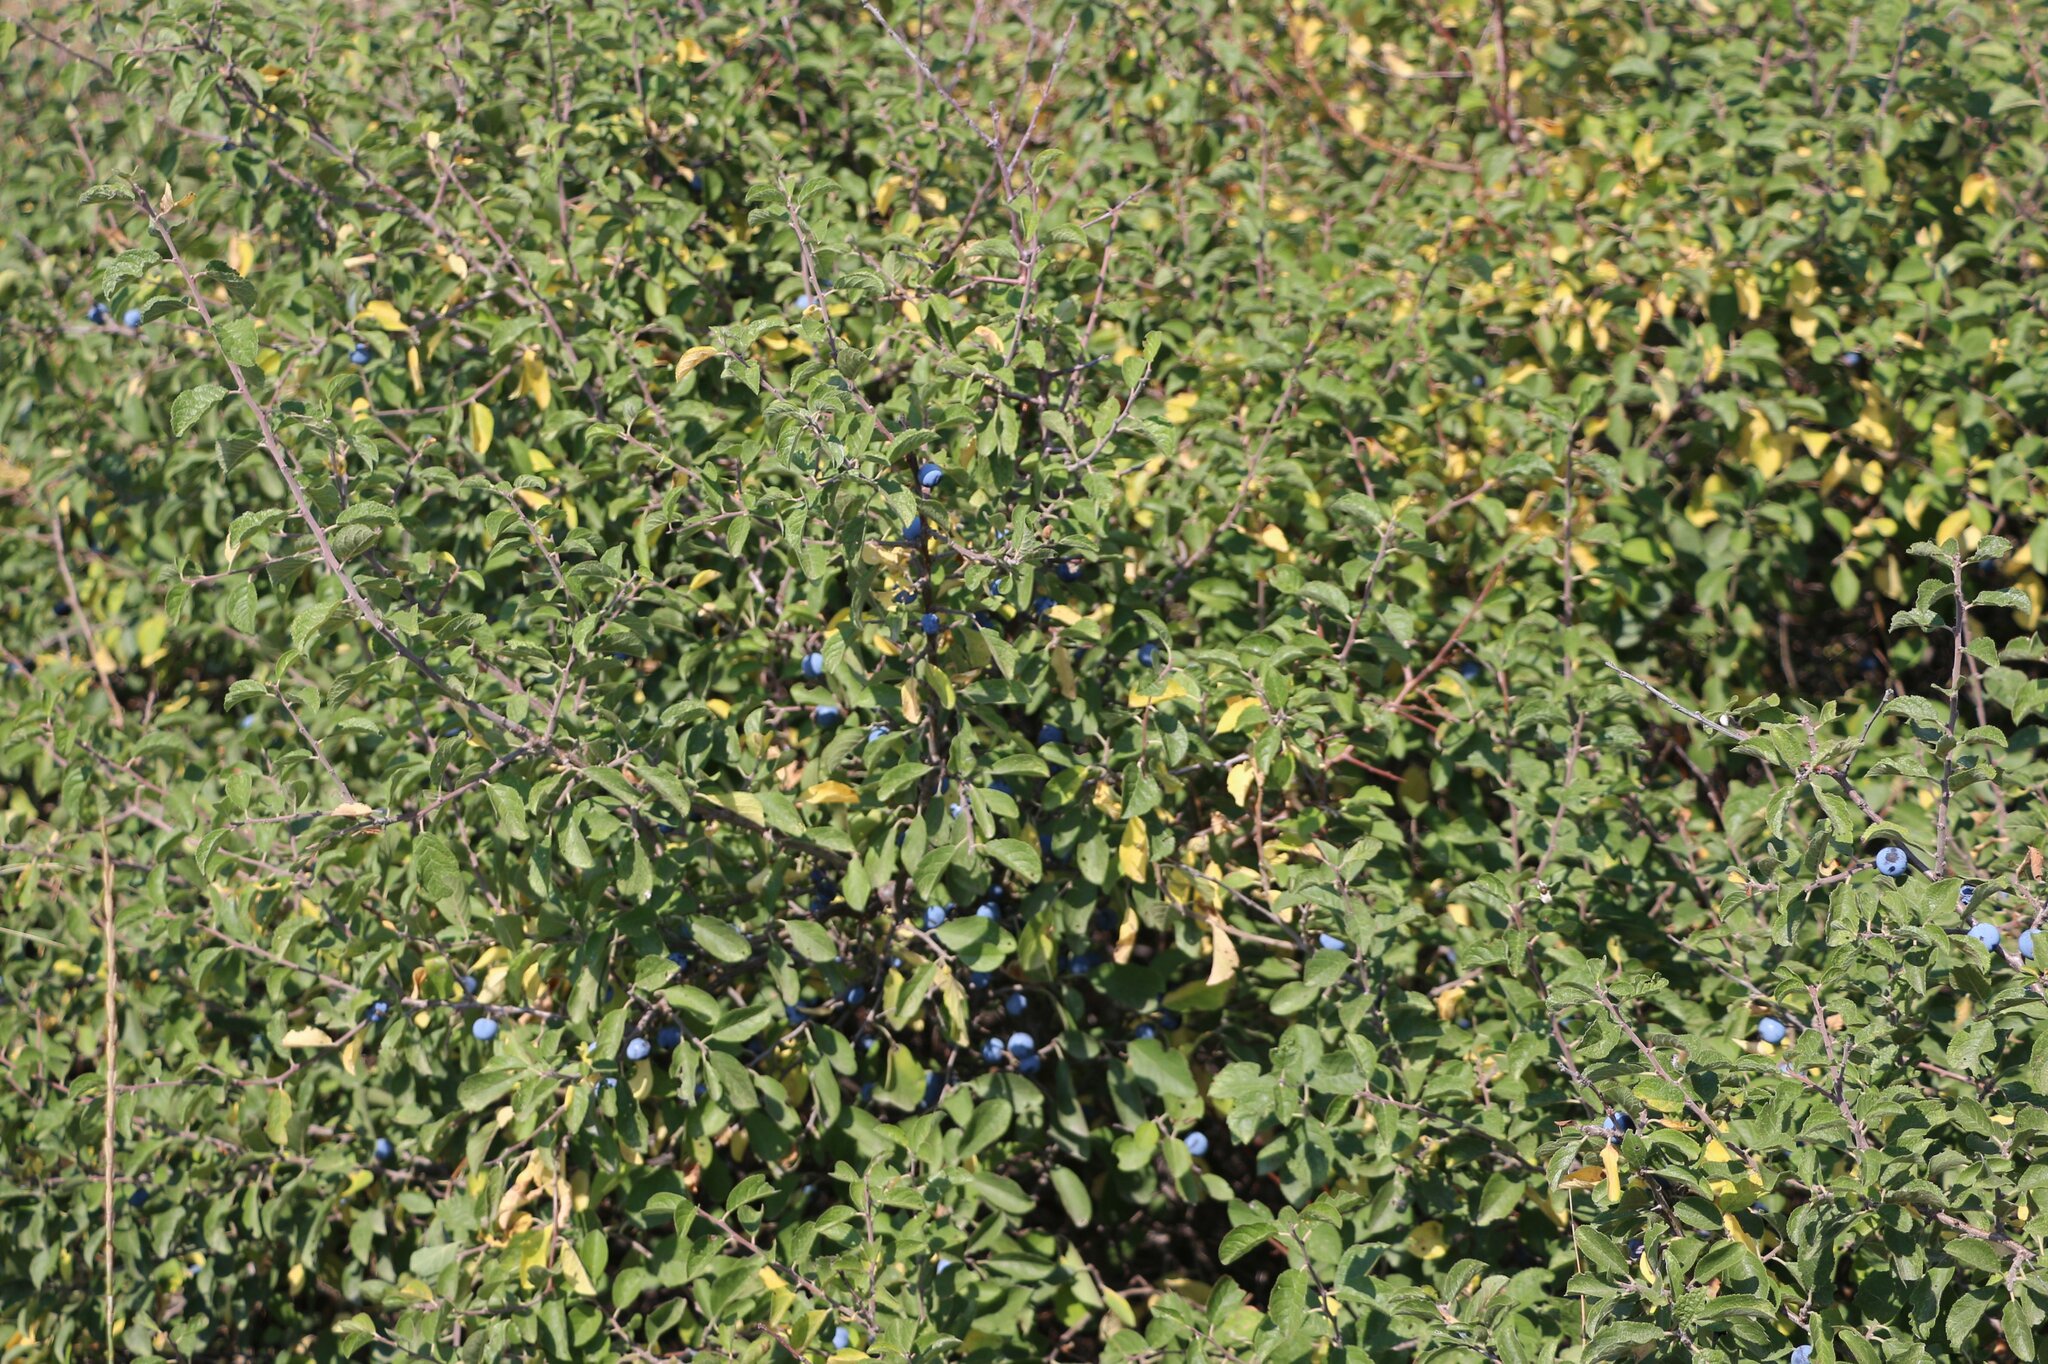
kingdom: Plantae
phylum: Tracheophyta
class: Magnoliopsida
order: Rosales
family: Rosaceae
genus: Prunus
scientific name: Prunus spinosa
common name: Blackthorn
